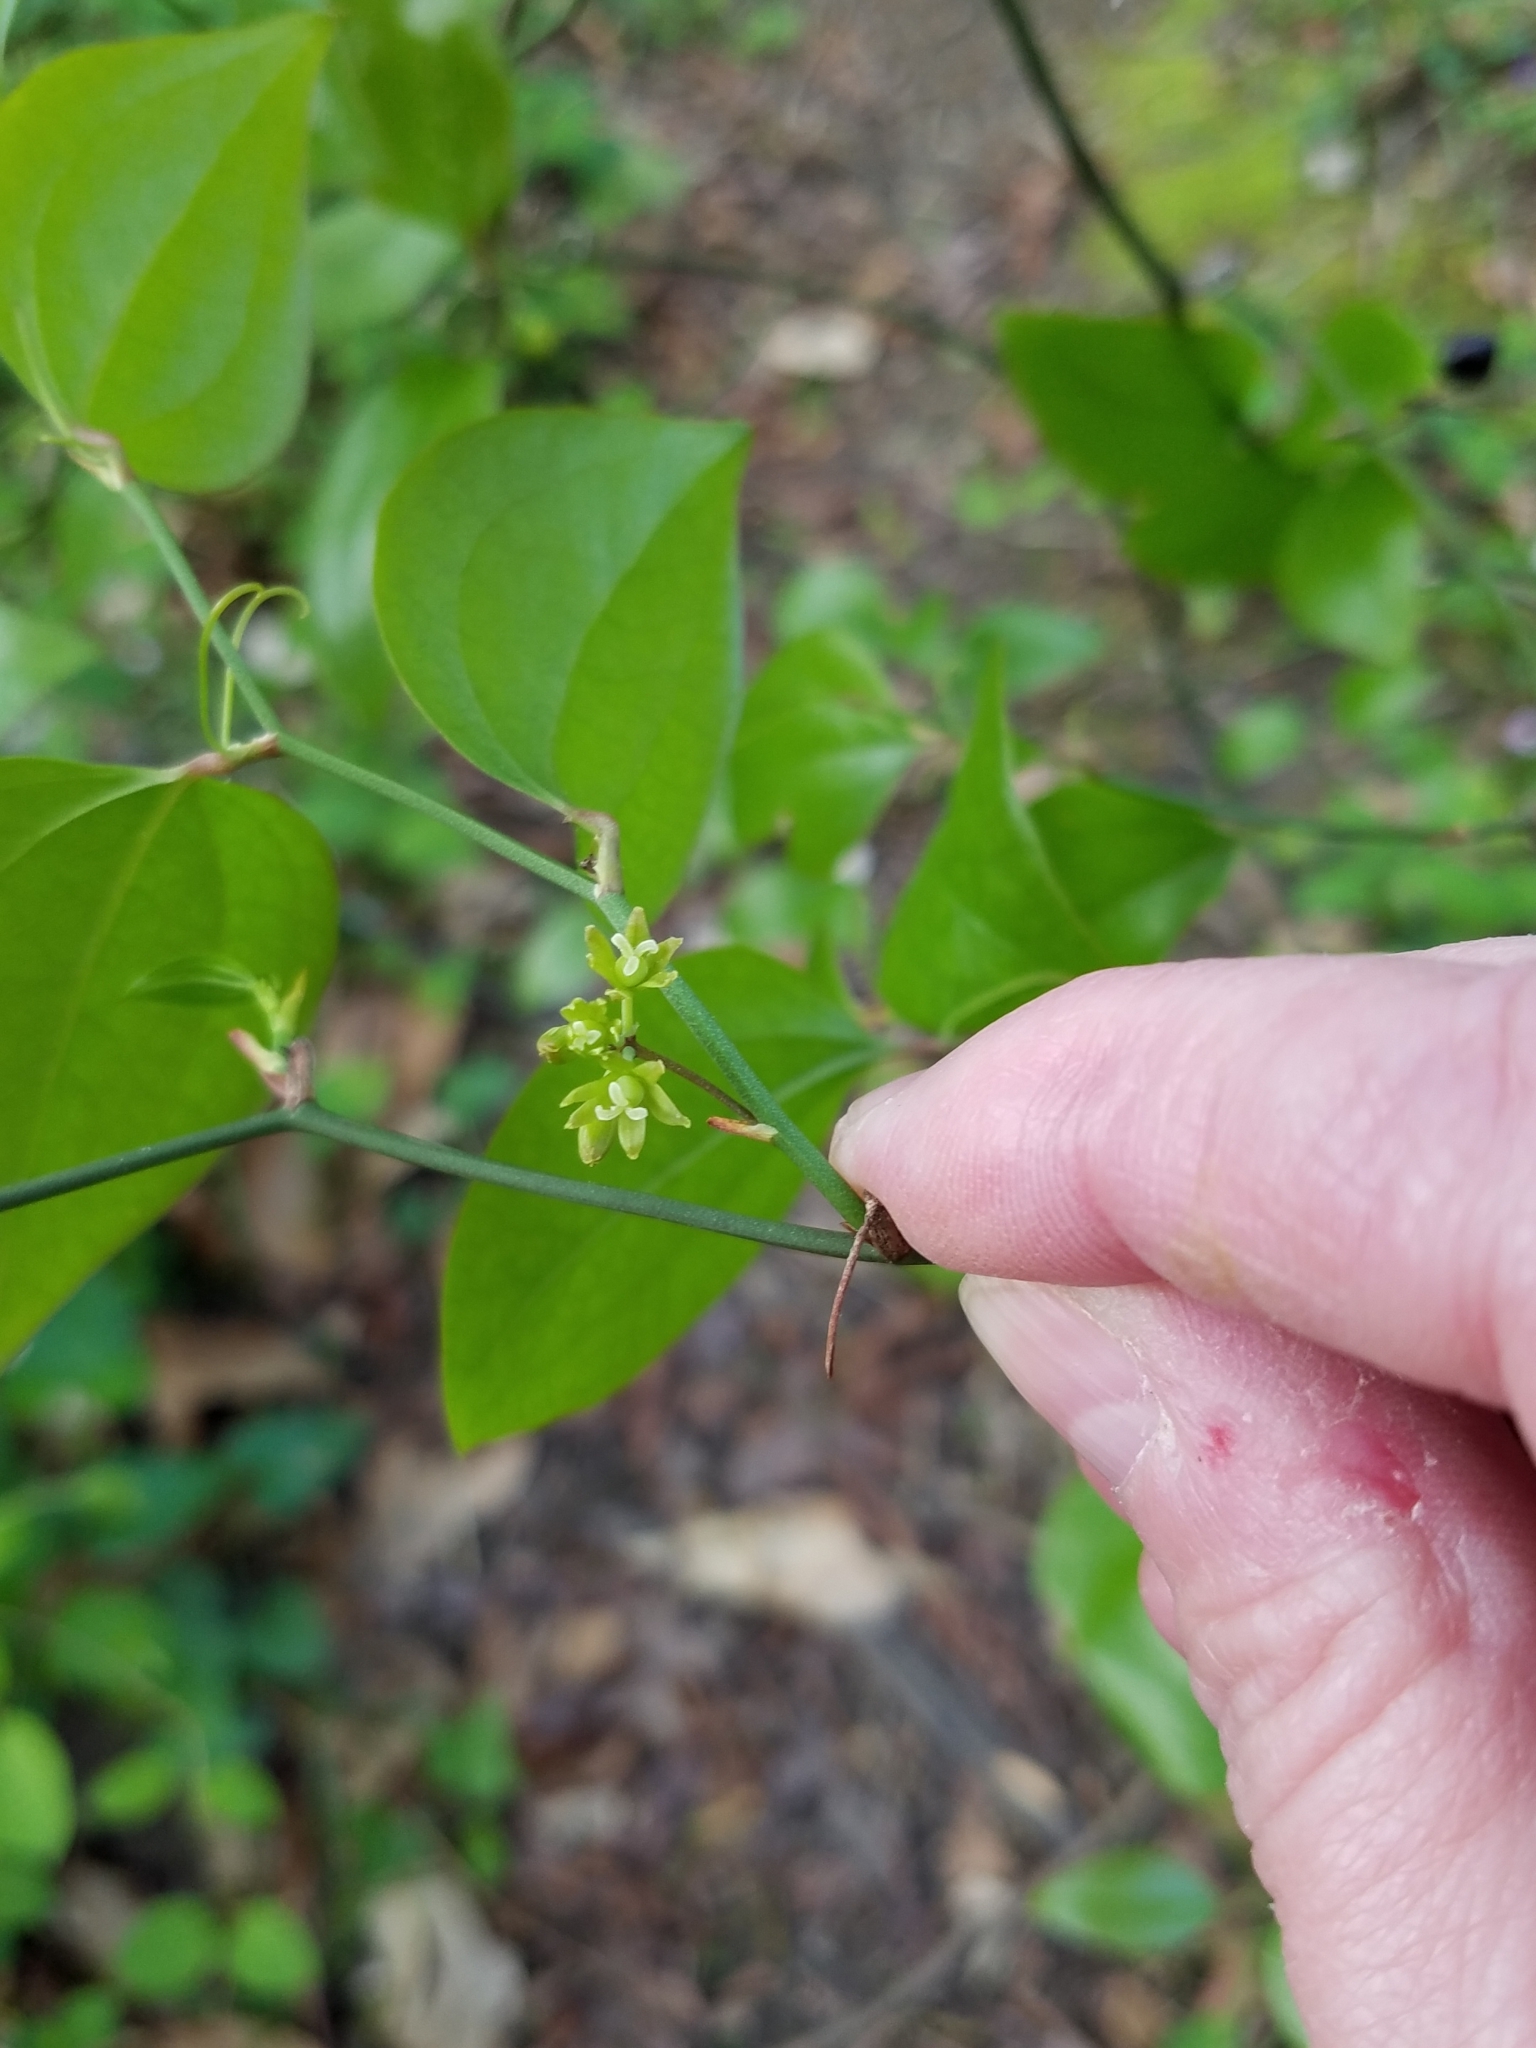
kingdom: Plantae
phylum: Tracheophyta
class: Liliopsida
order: Liliales
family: Smilacaceae
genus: Smilax
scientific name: Smilax rotundifolia
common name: Bullbriar
